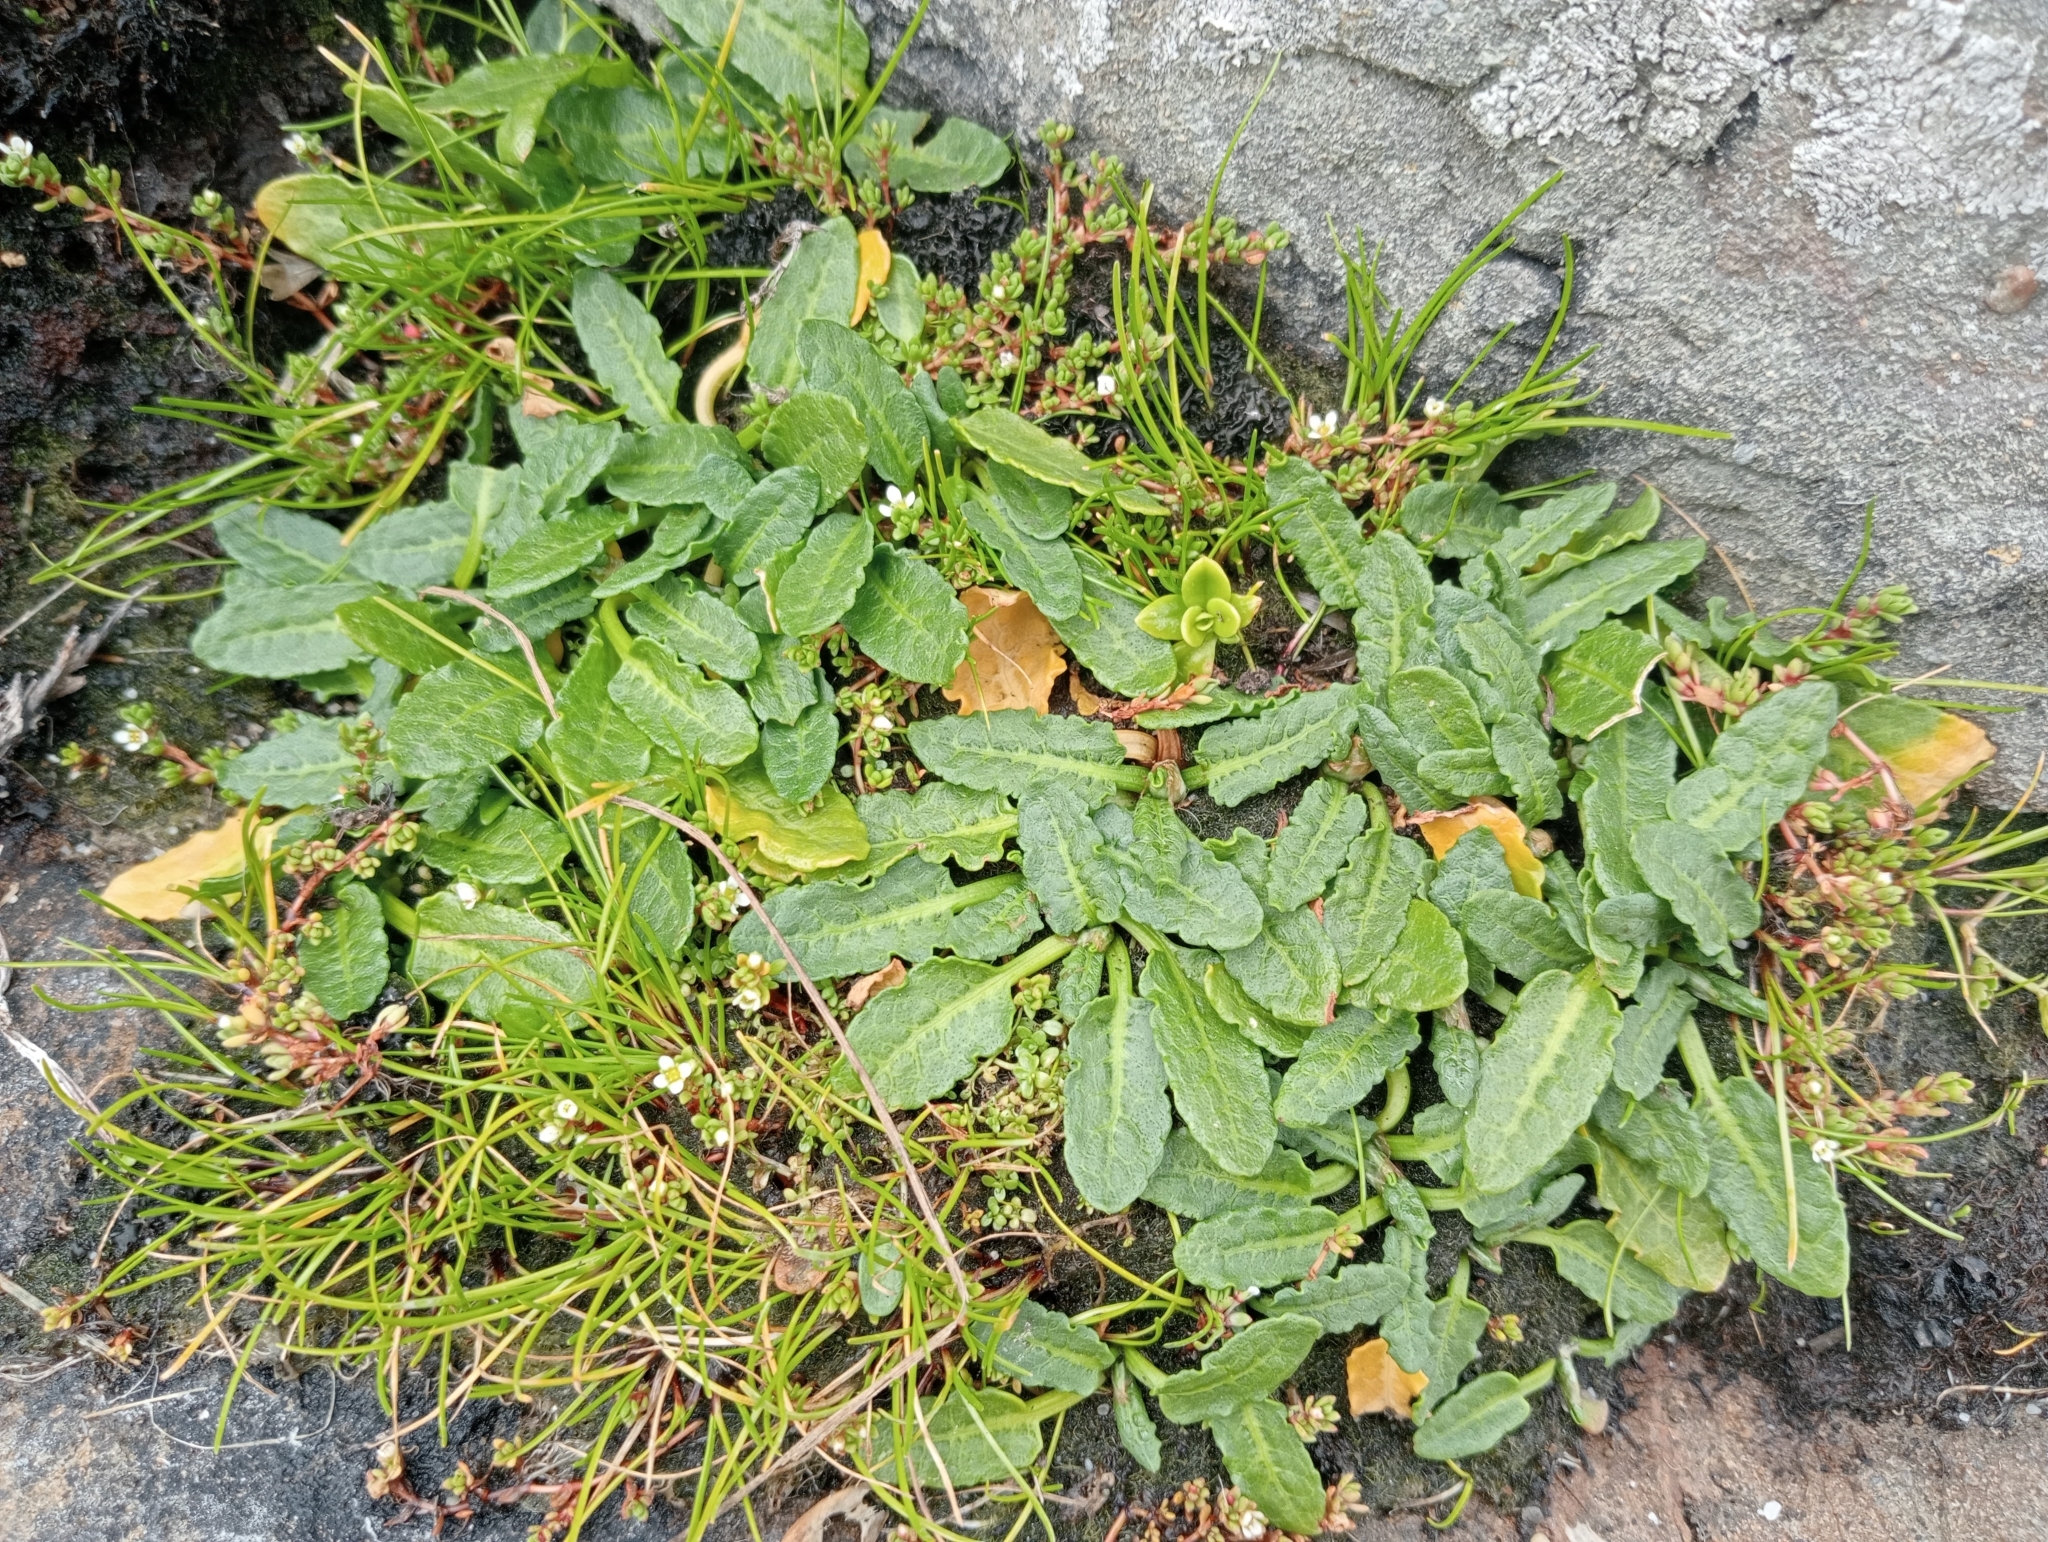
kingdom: Plantae
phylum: Tracheophyta
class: Magnoliopsida
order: Caryophyllales
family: Polygonaceae
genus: Rumex
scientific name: Rumex neglectus
